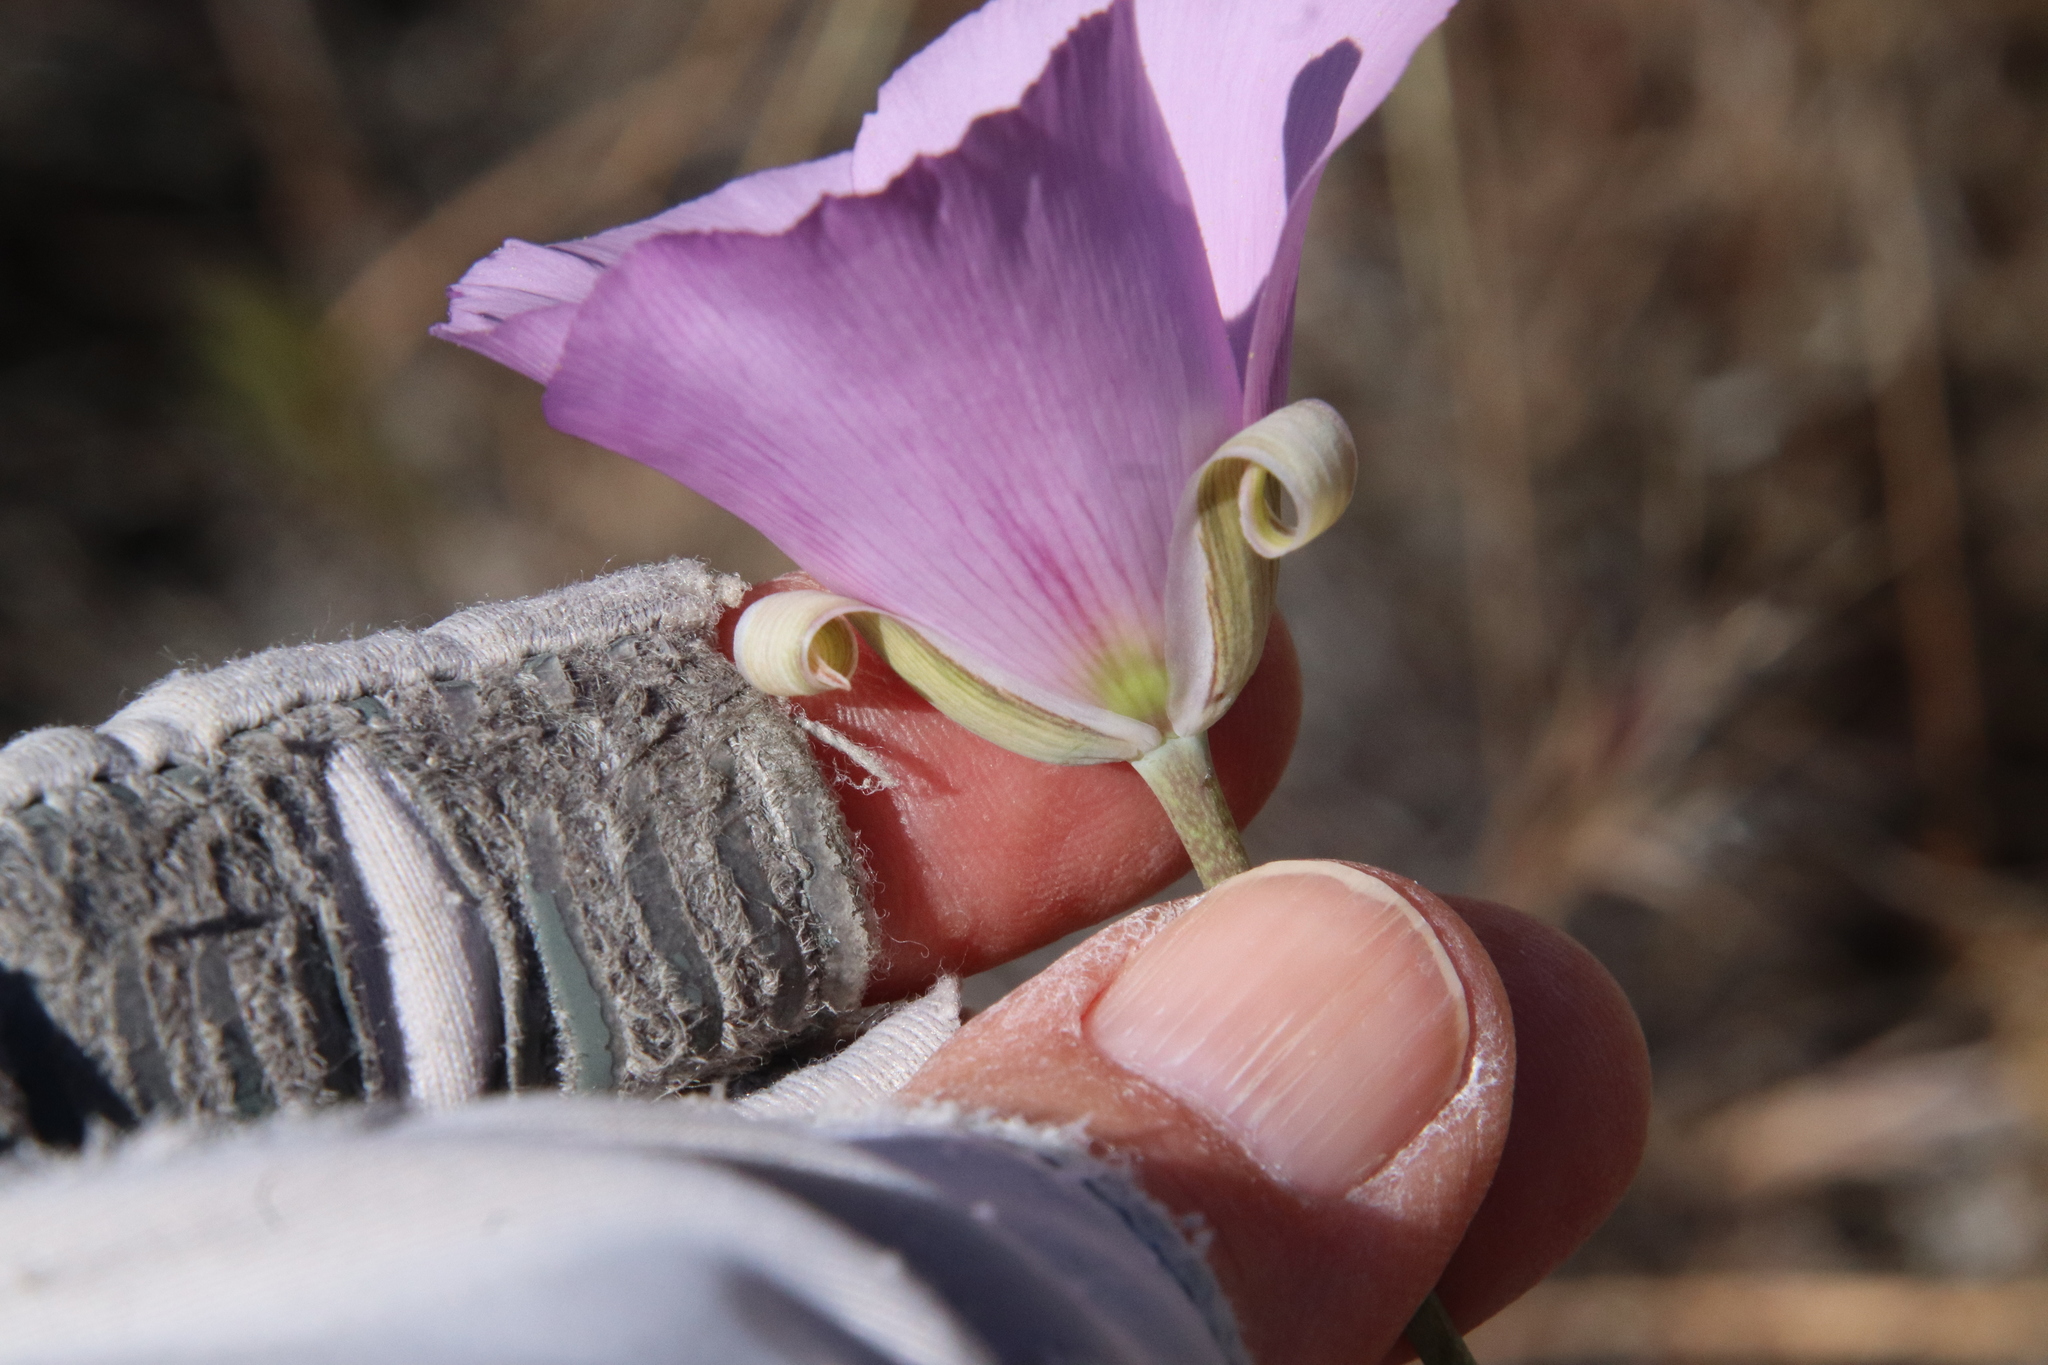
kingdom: Plantae
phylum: Tracheophyta
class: Liliopsida
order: Liliales
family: Liliaceae
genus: Calochortus
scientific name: Calochortus splendens
